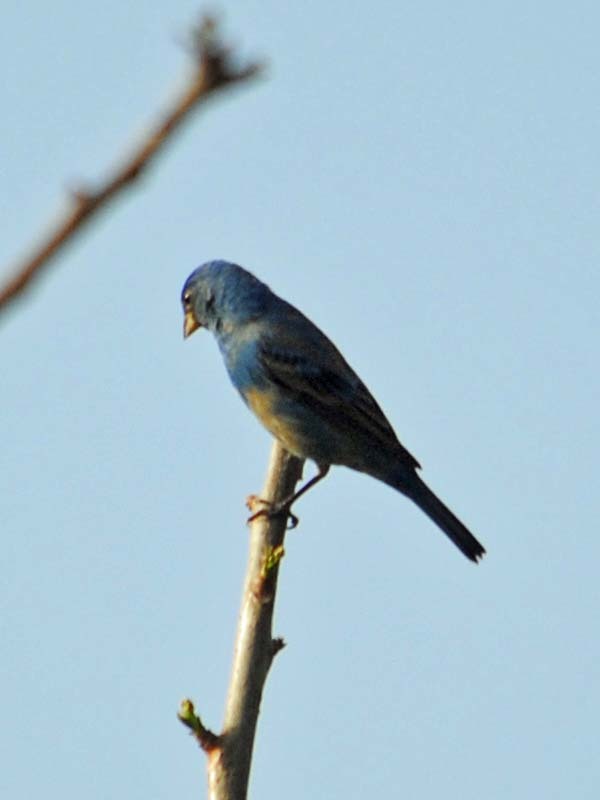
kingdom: Animalia
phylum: Chordata
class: Aves
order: Passeriformes
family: Cardinalidae
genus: Passerina
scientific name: Passerina cyanea
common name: Indigo bunting
